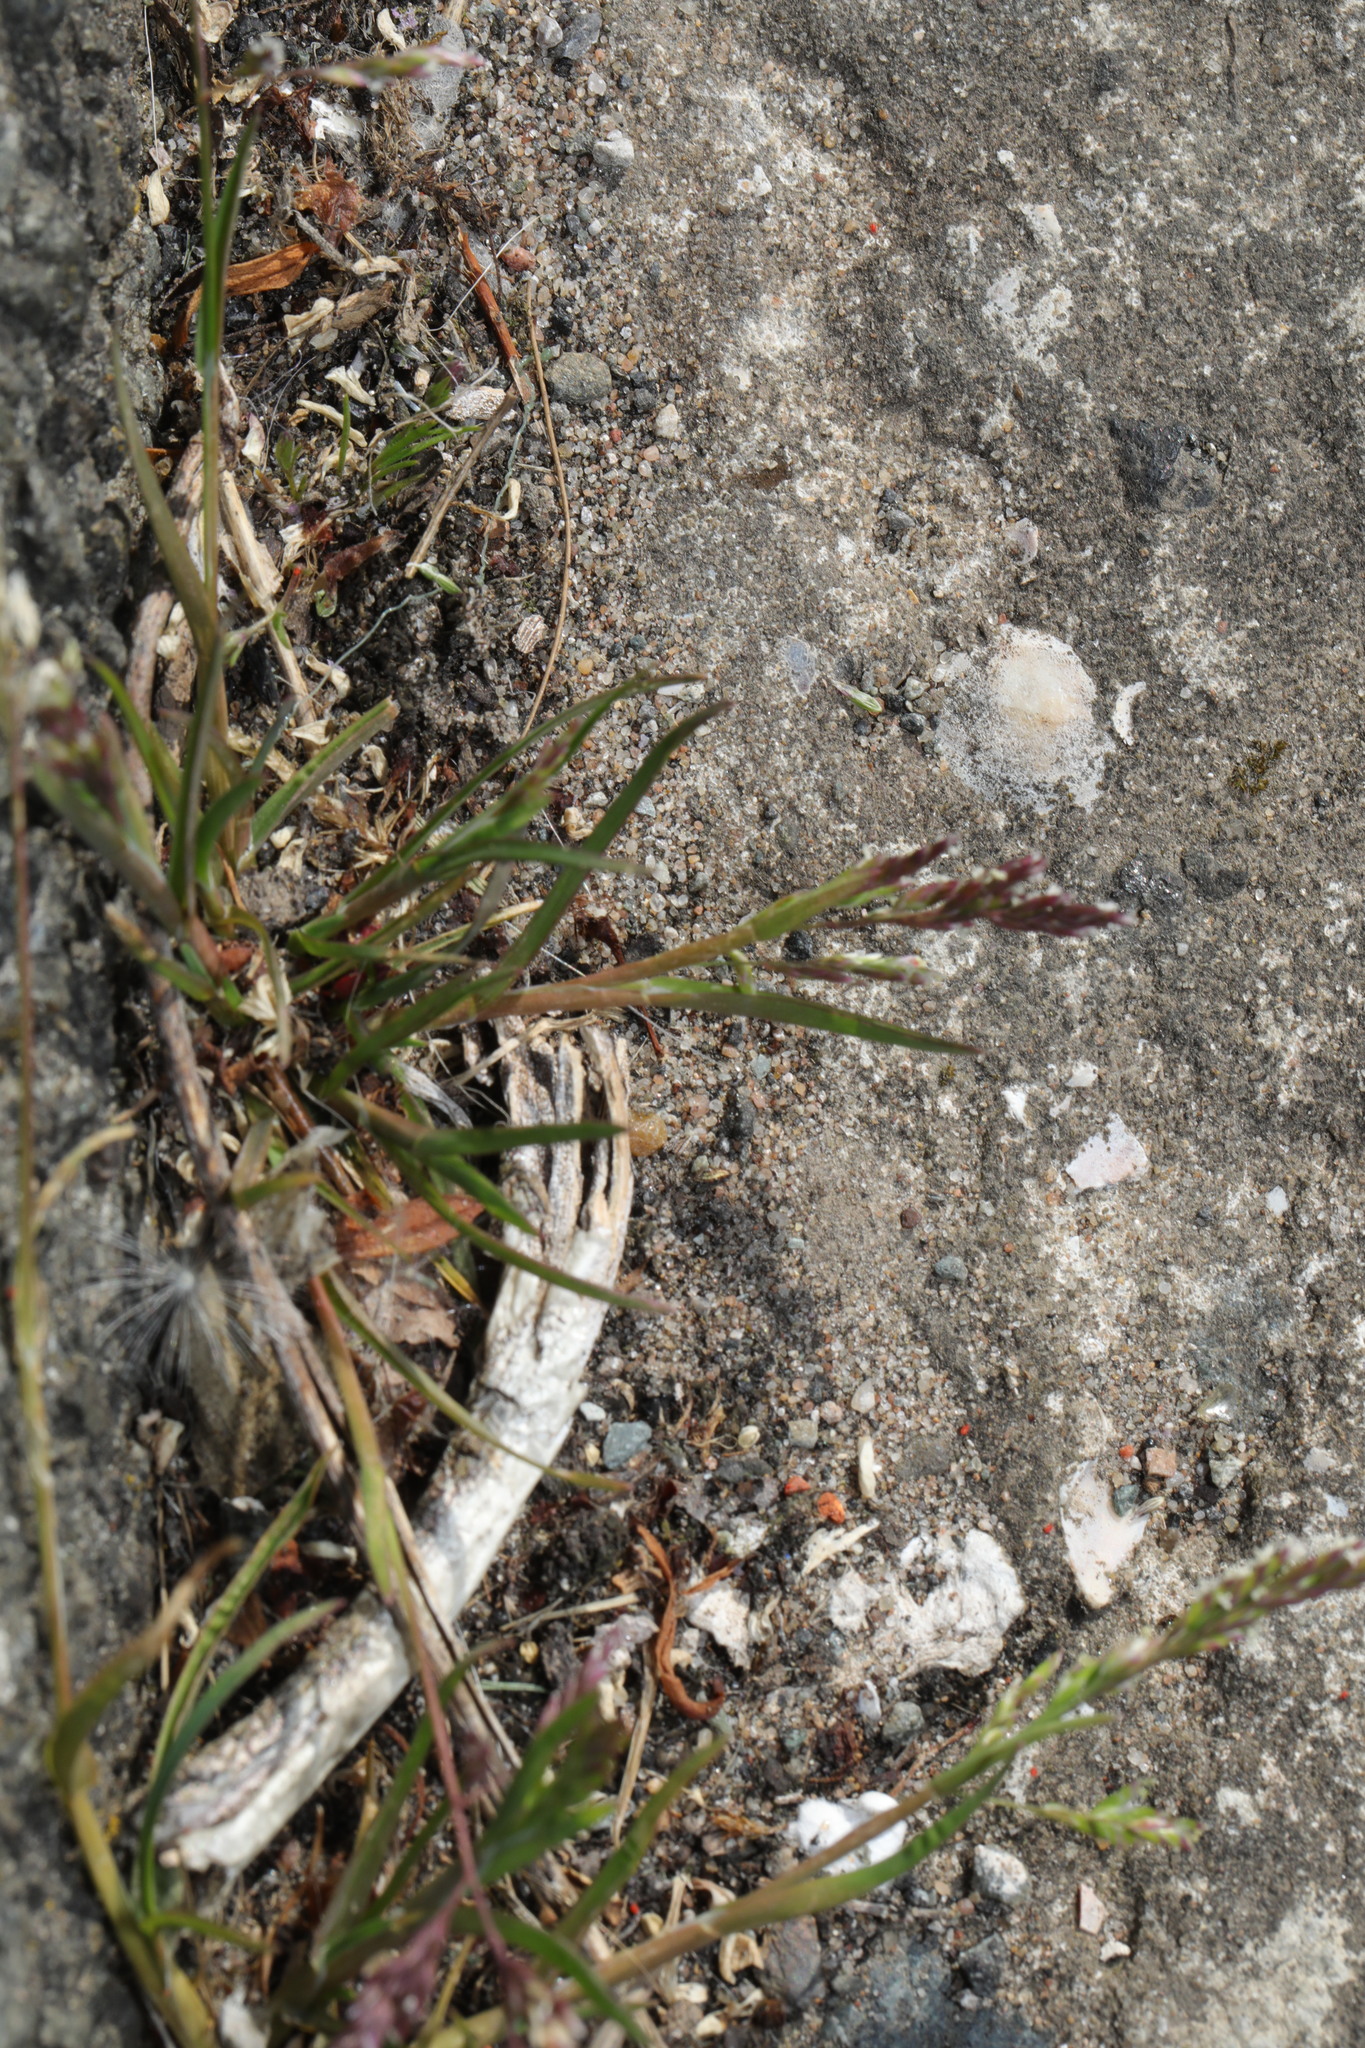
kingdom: Plantae
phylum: Tracheophyta
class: Liliopsida
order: Poales
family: Poaceae
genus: Poa
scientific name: Poa annua
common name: Annual bluegrass
